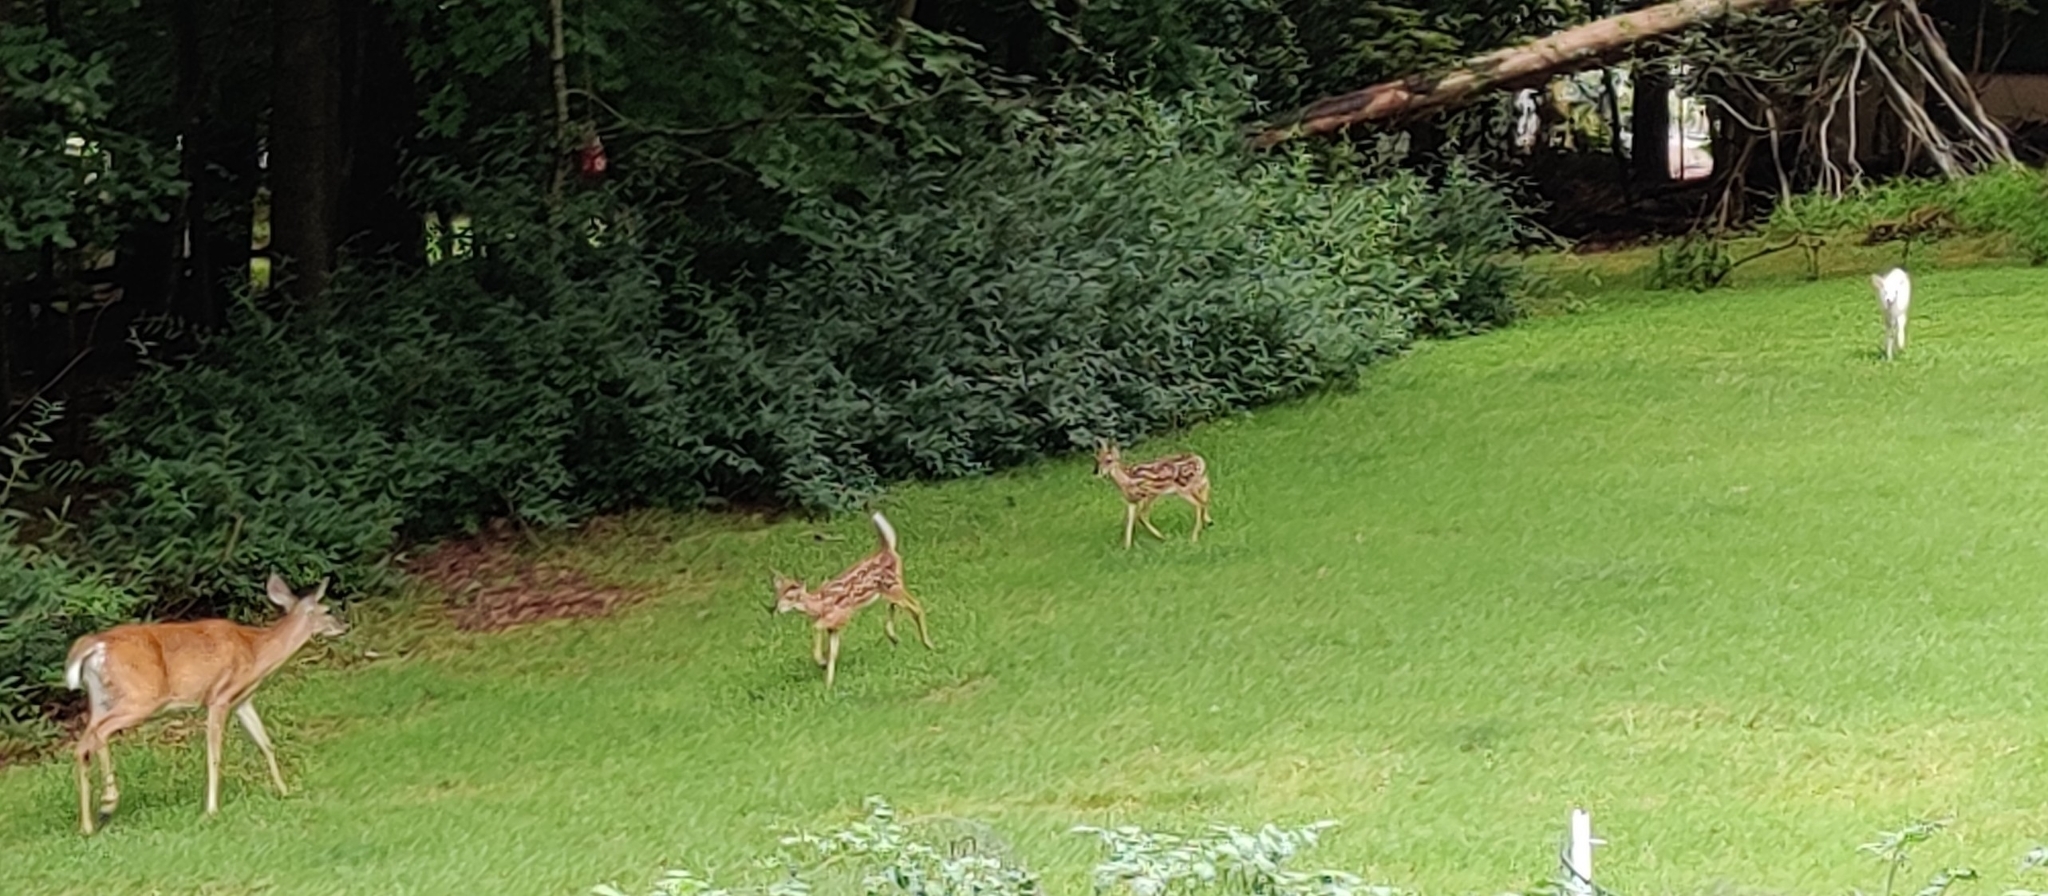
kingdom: Animalia
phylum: Chordata
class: Mammalia
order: Artiodactyla
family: Cervidae
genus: Odocoileus
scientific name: Odocoileus virginianus
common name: White-tailed deer
